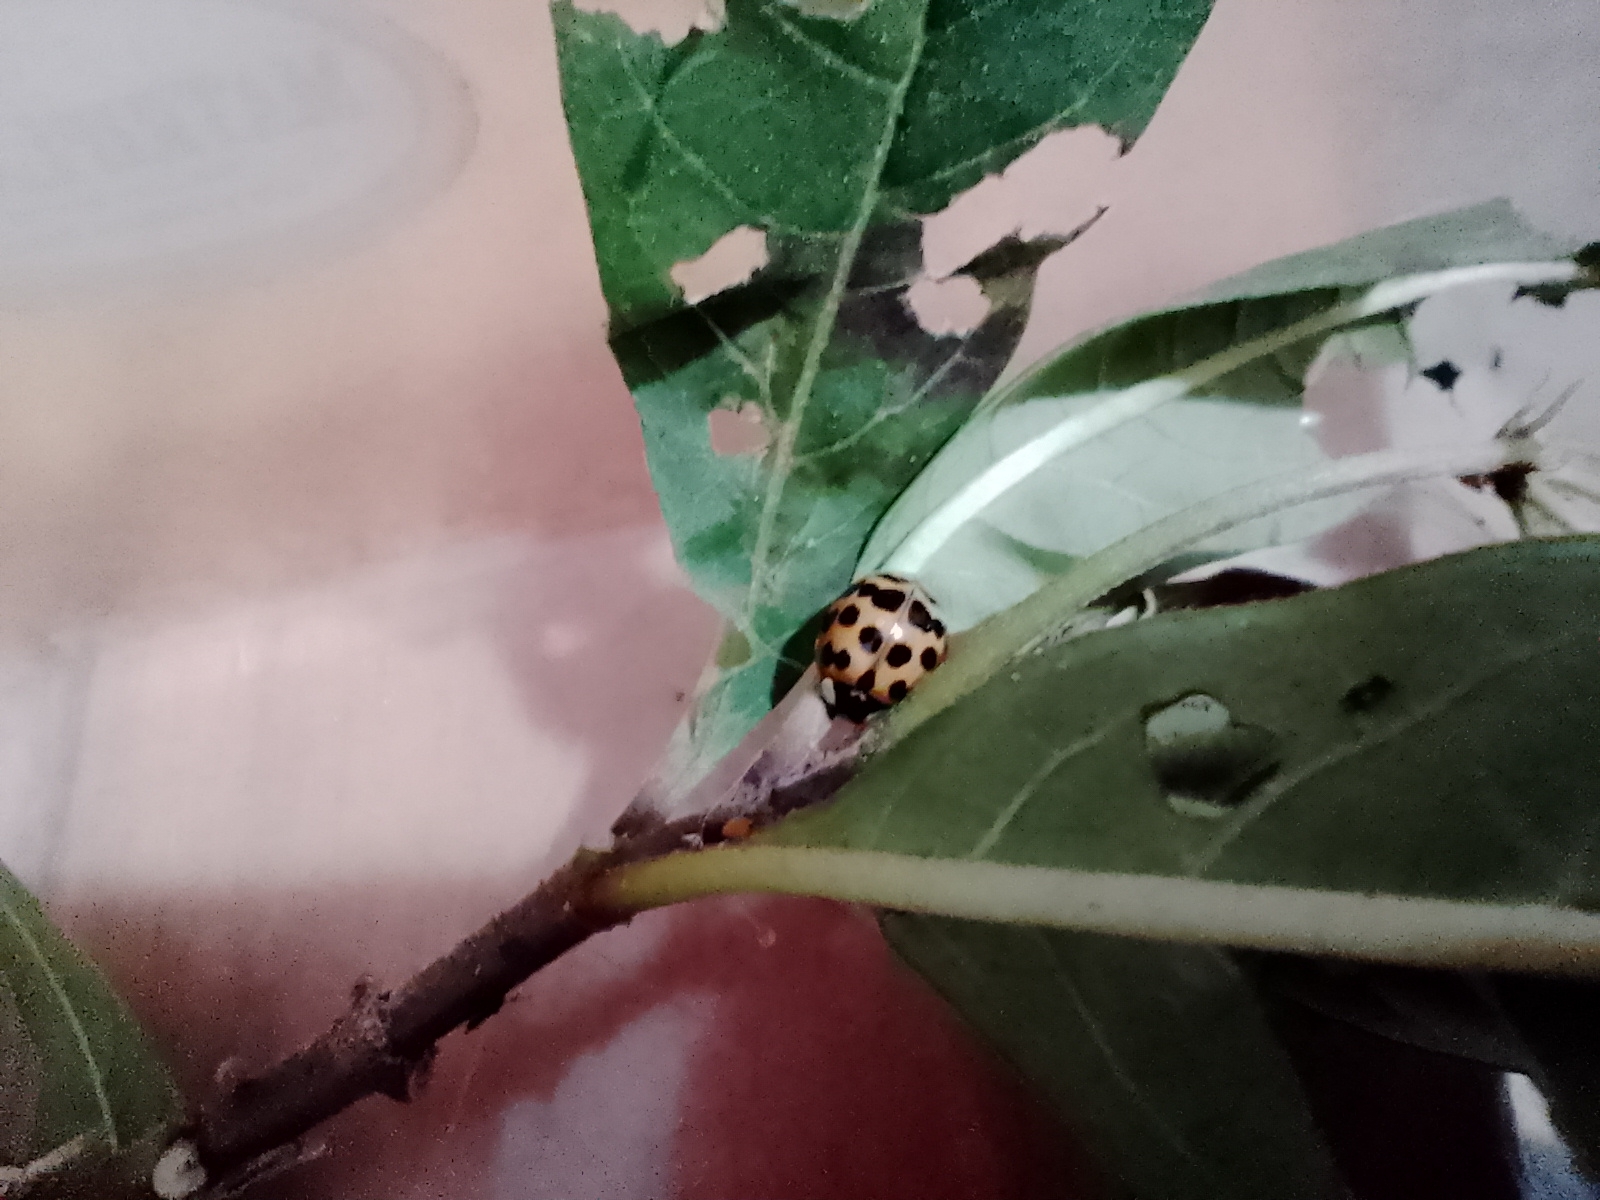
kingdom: Animalia
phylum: Arthropoda
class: Insecta
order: Coleoptera
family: Coccinellidae
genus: Harmonia
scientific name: Harmonia axyridis
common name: Harlequin ladybird
